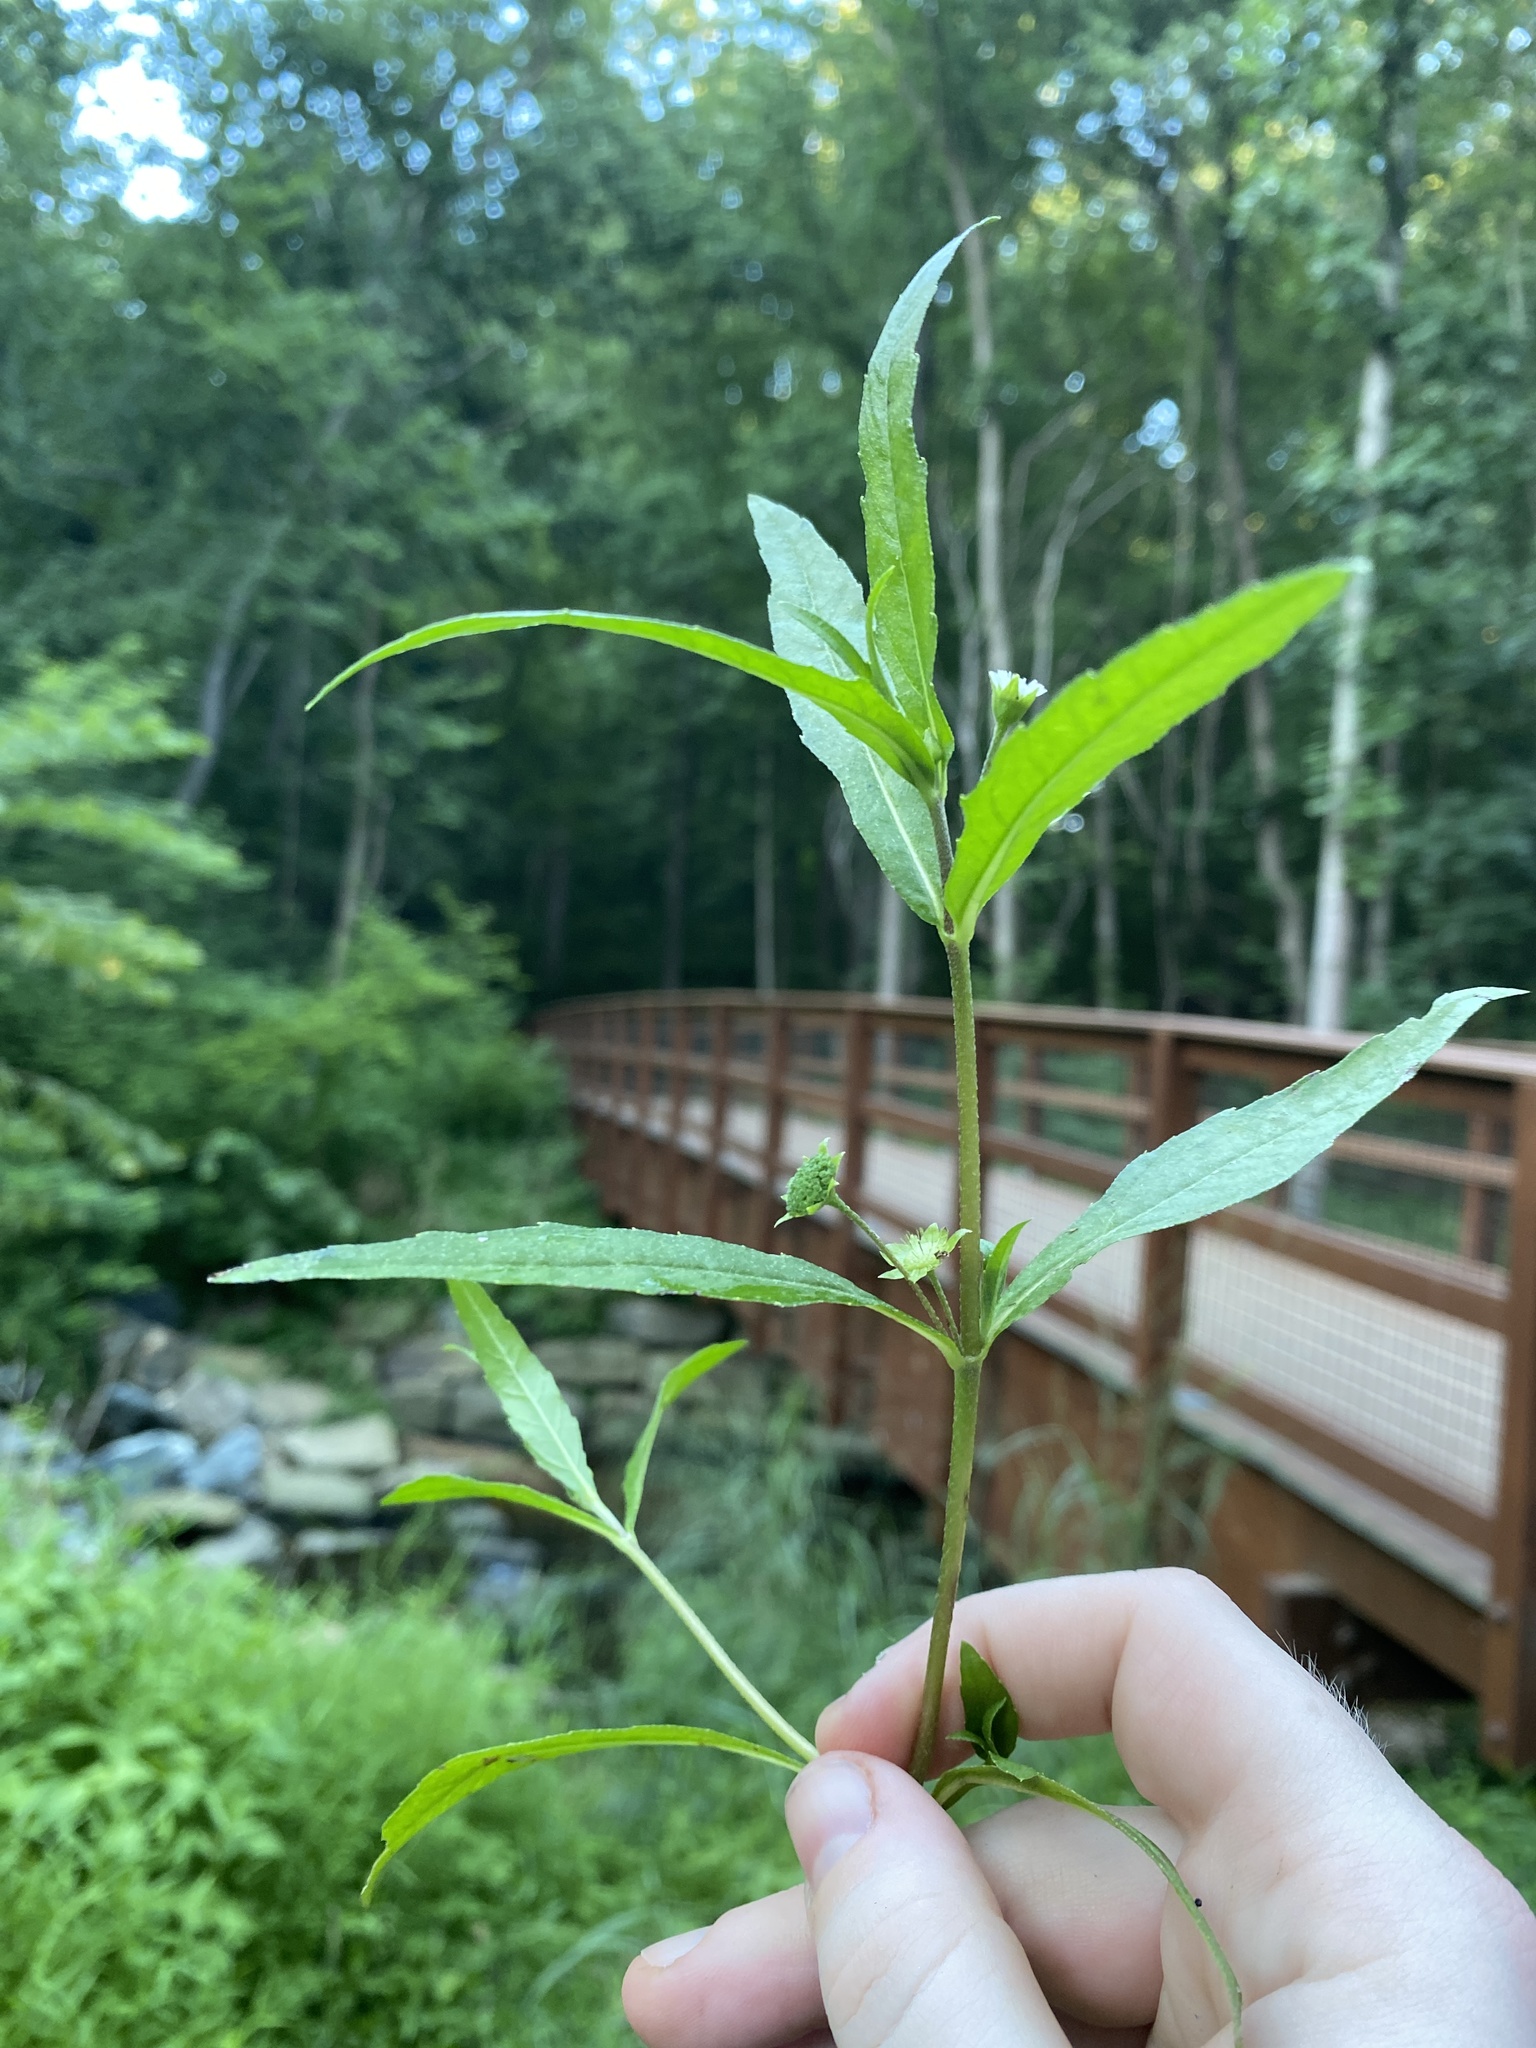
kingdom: Plantae
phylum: Tracheophyta
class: Magnoliopsida
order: Asterales
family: Asteraceae
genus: Eclipta
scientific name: Eclipta prostrata
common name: False daisy
